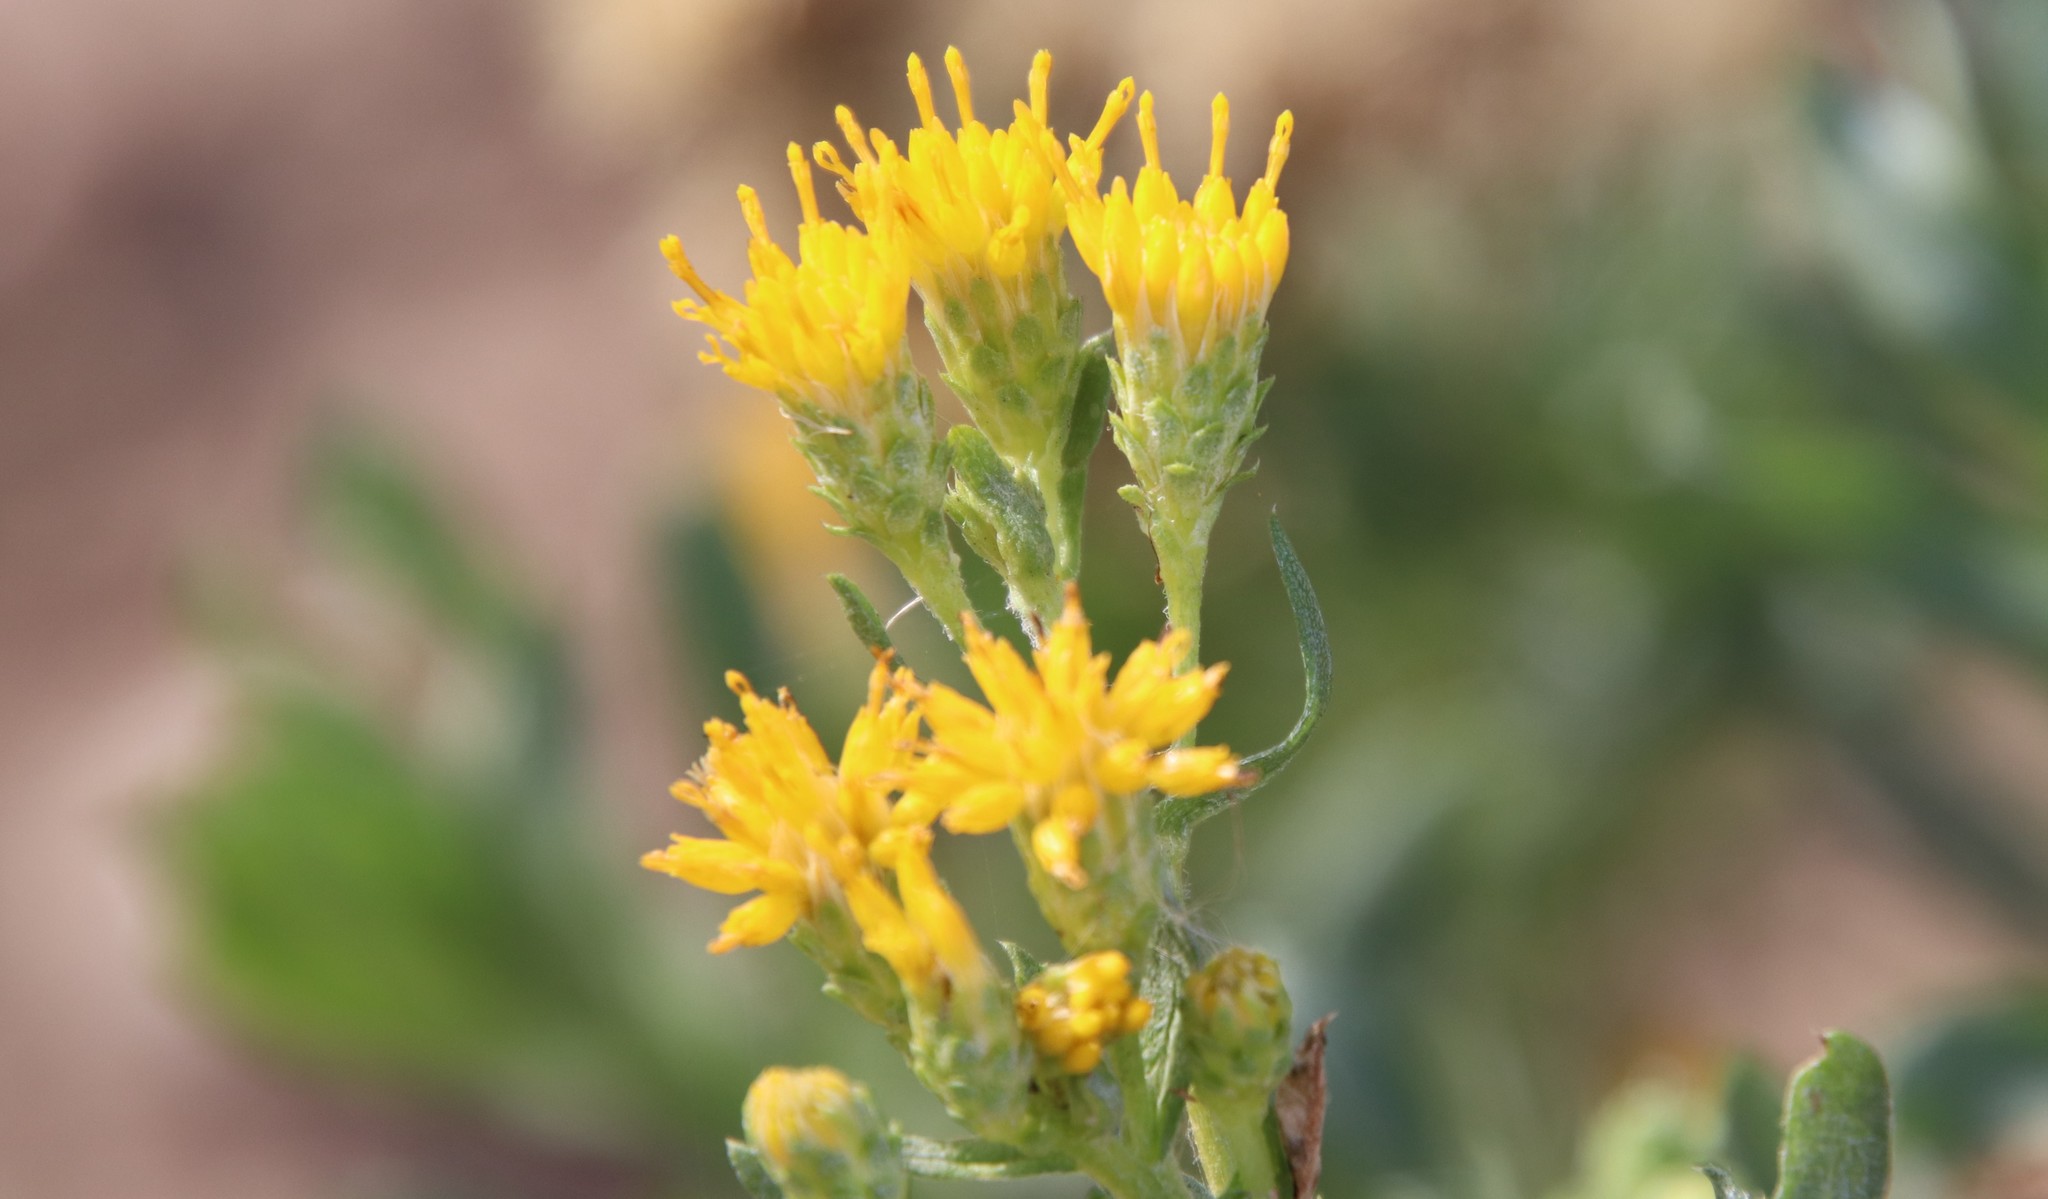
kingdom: Plantae
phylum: Tracheophyta
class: Magnoliopsida
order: Asterales
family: Asteraceae
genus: Isocoma
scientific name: Isocoma menziesii
